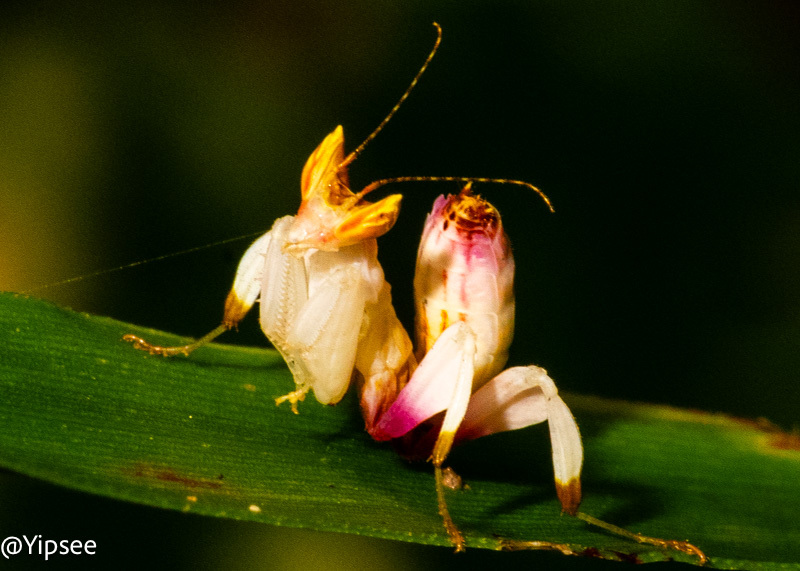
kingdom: Animalia
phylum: Arthropoda
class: Insecta
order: Mantodea
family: Hymenopodidae
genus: Hymenopus
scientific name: Hymenopus coronatus
